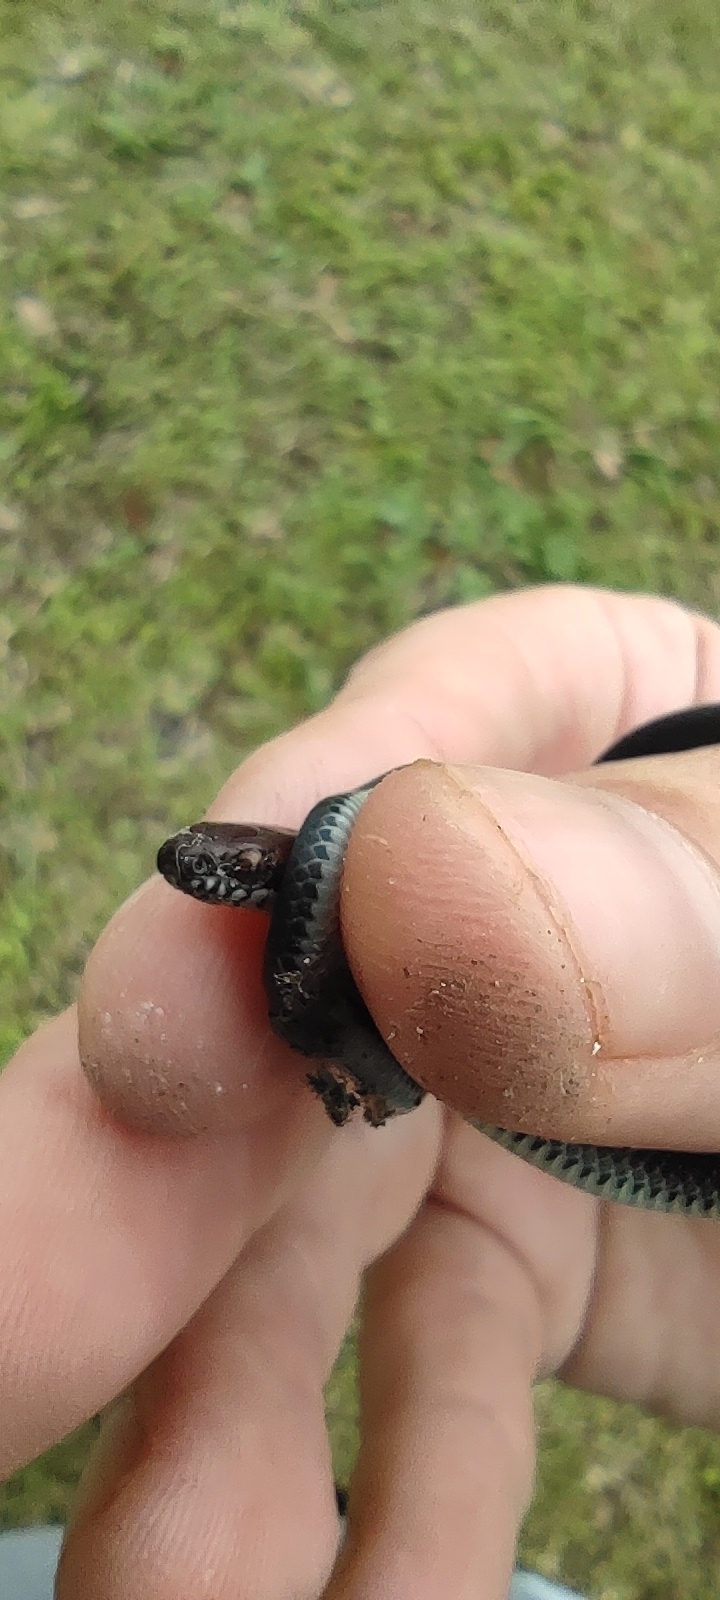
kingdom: Animalia
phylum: Chordata
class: Squamata
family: Colubridae
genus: Urotheca
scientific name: Urotheca fulviceps
